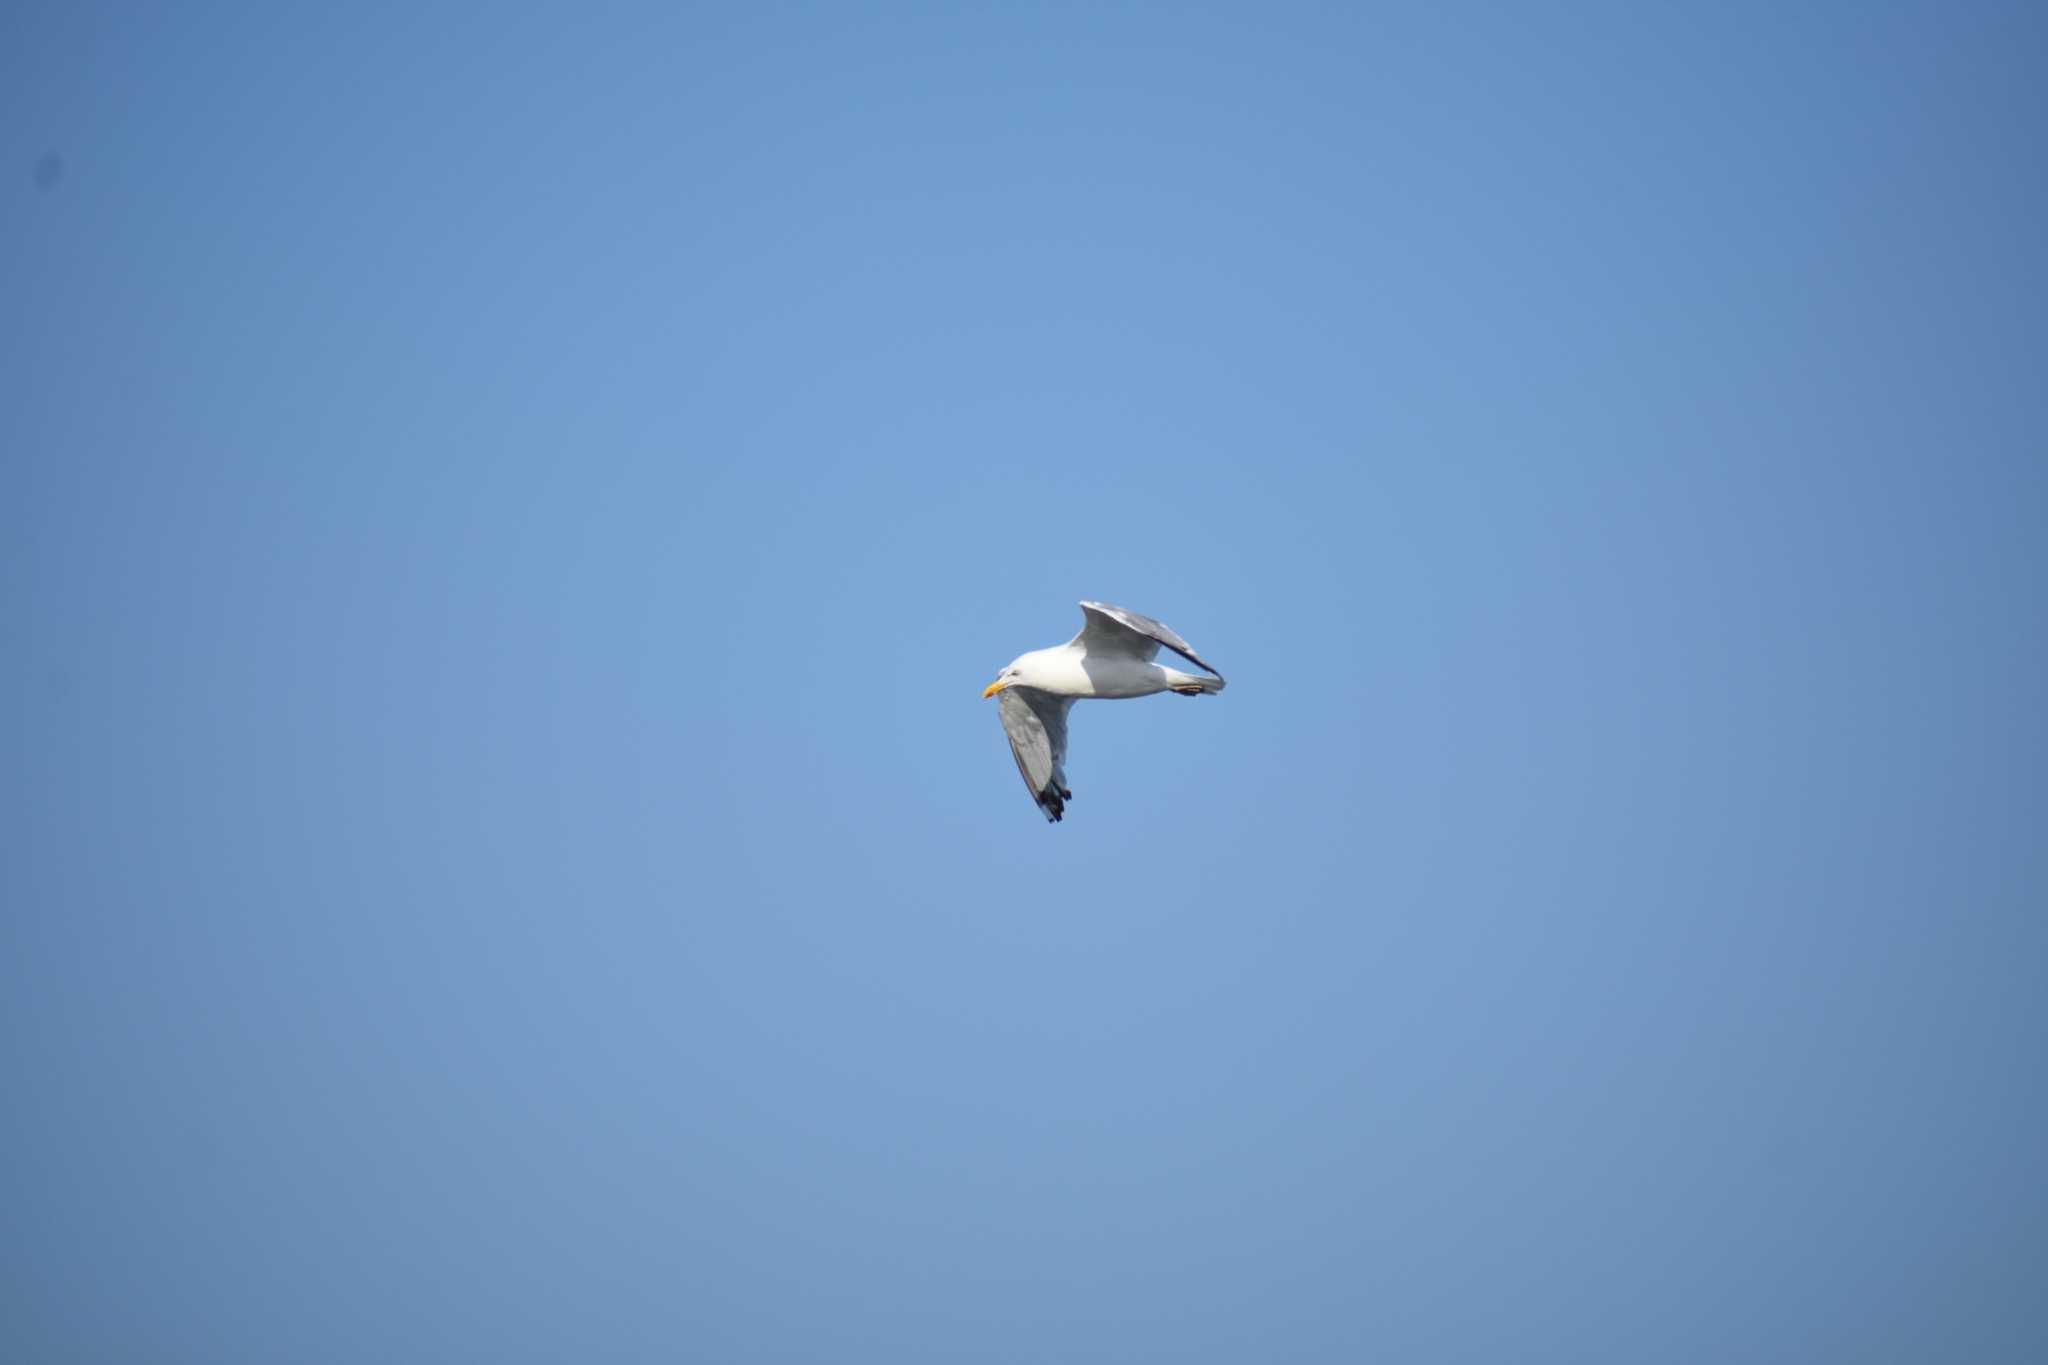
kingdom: Animalia
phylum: Chordata
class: Aves
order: Charadriiformes
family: Laridae
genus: Larus
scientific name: Larus argentatus
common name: Herring gull
